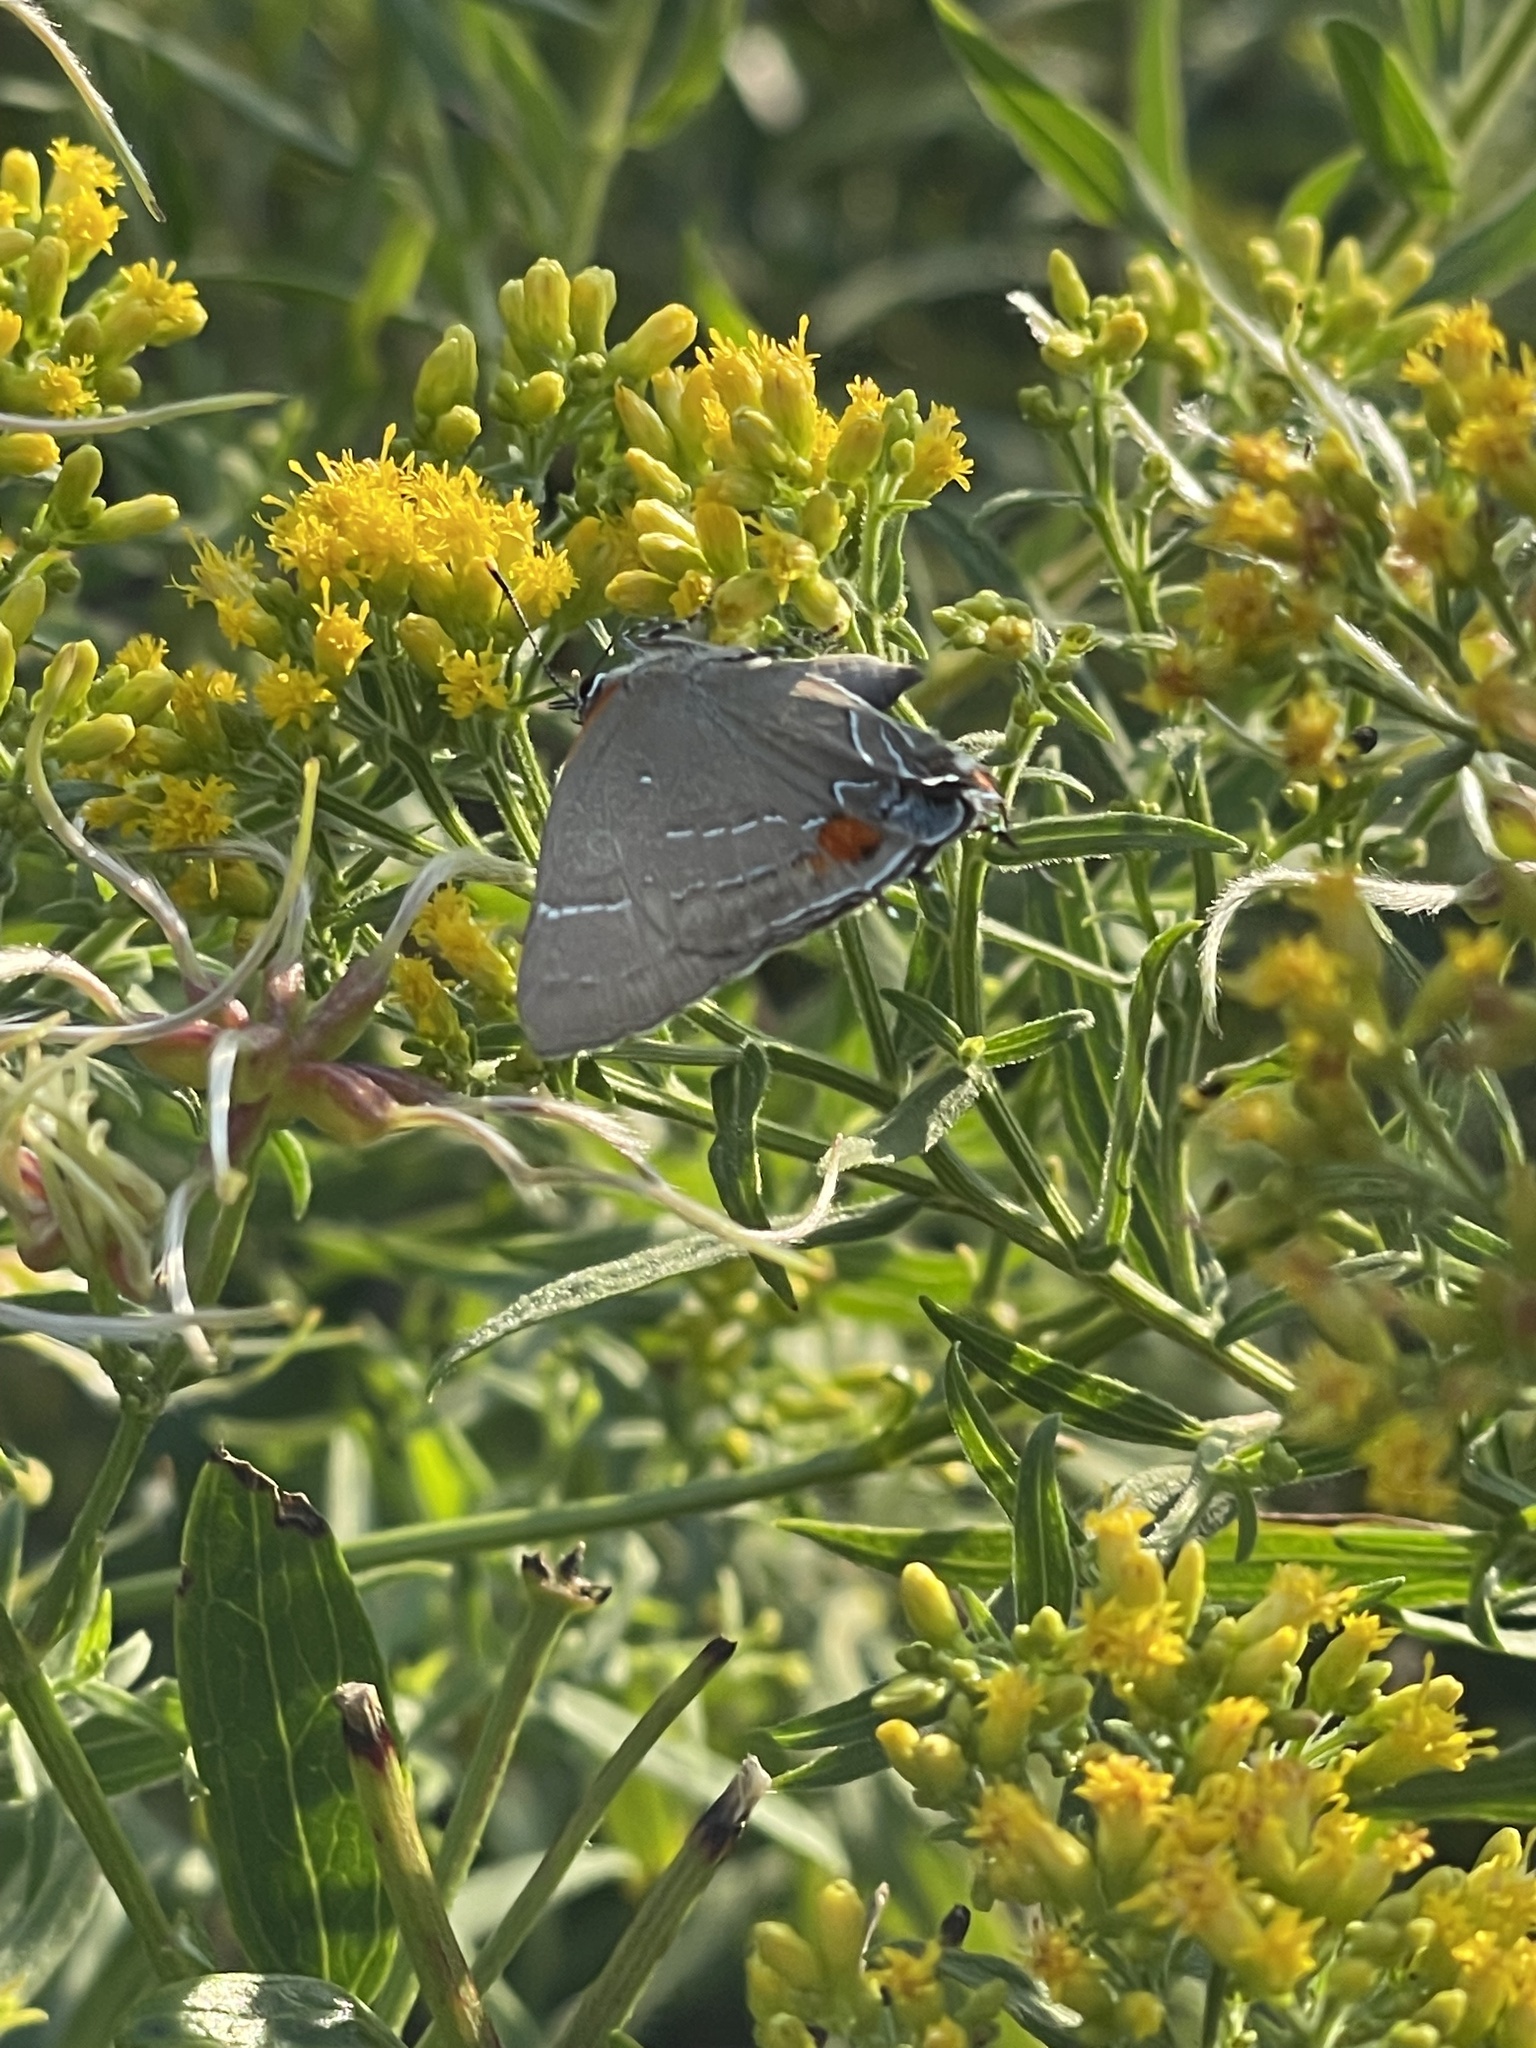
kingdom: Animalia
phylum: Arthropoda
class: Insecta
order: Lepidoptera
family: Lycaenidae
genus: Parrhasius
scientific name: Parrhasius m-album
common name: White m hairstreak
